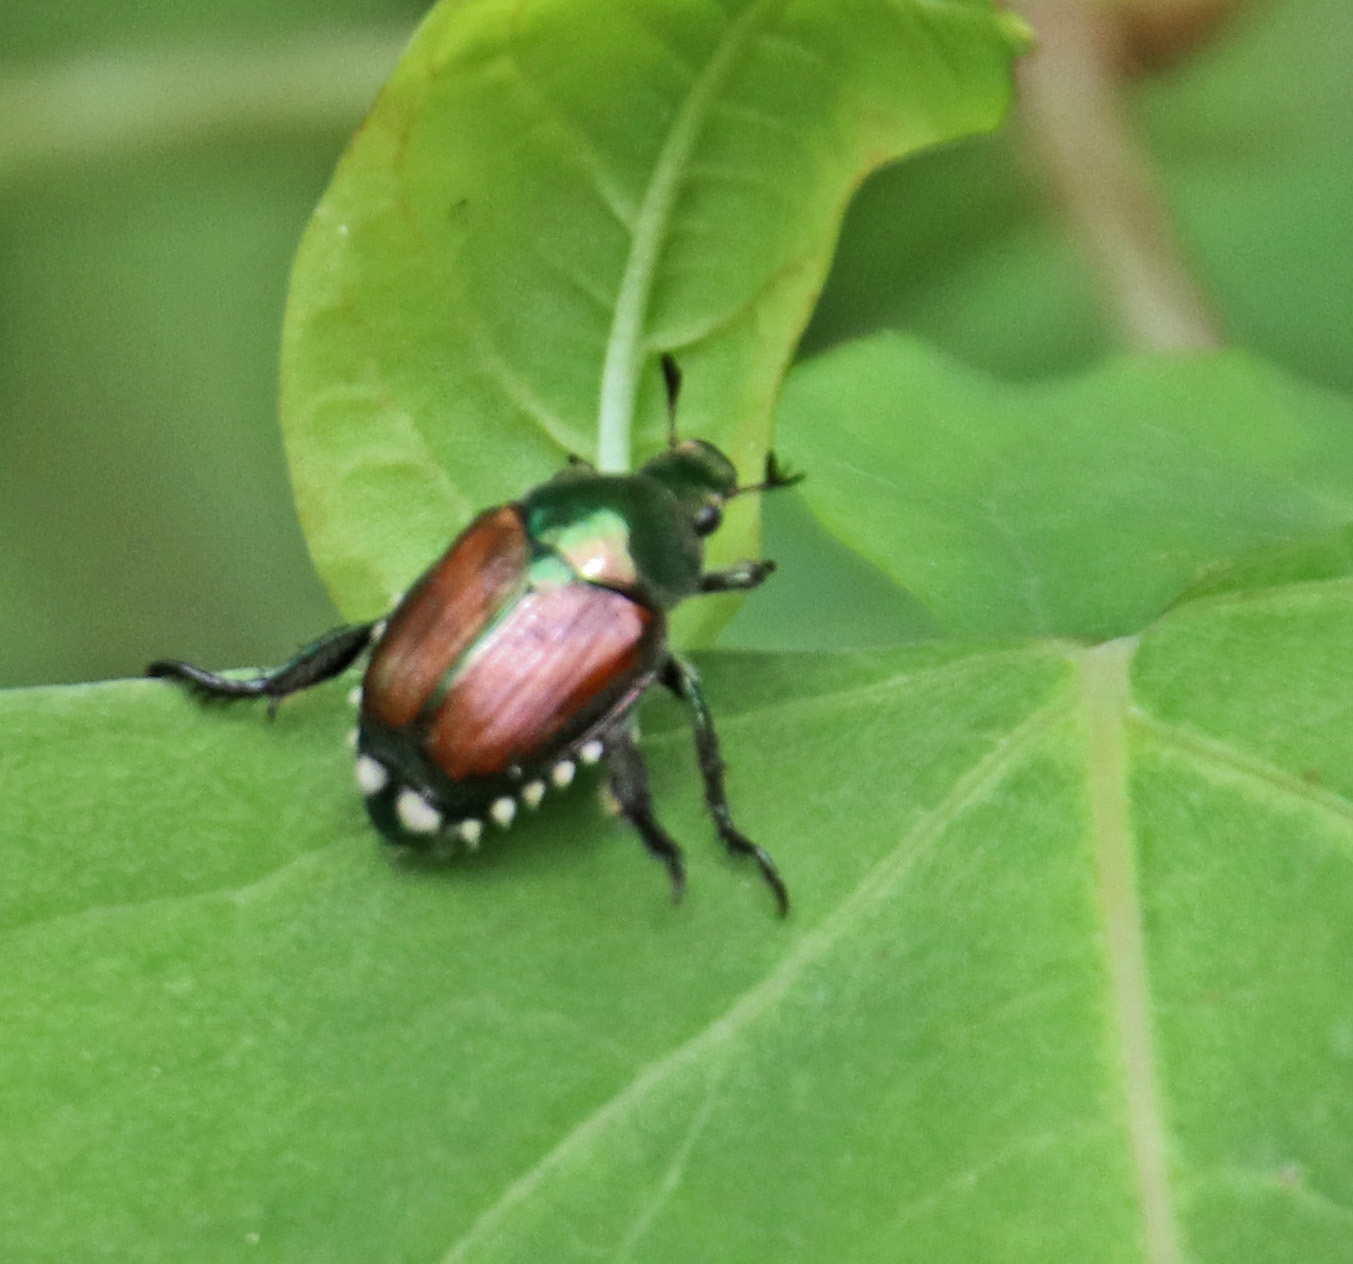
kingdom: Animalia
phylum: Arthropoda
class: Insecta
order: Coleoptera
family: Scarabaeidae
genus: Popillia
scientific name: Popillia japonica
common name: Japanese beetle
